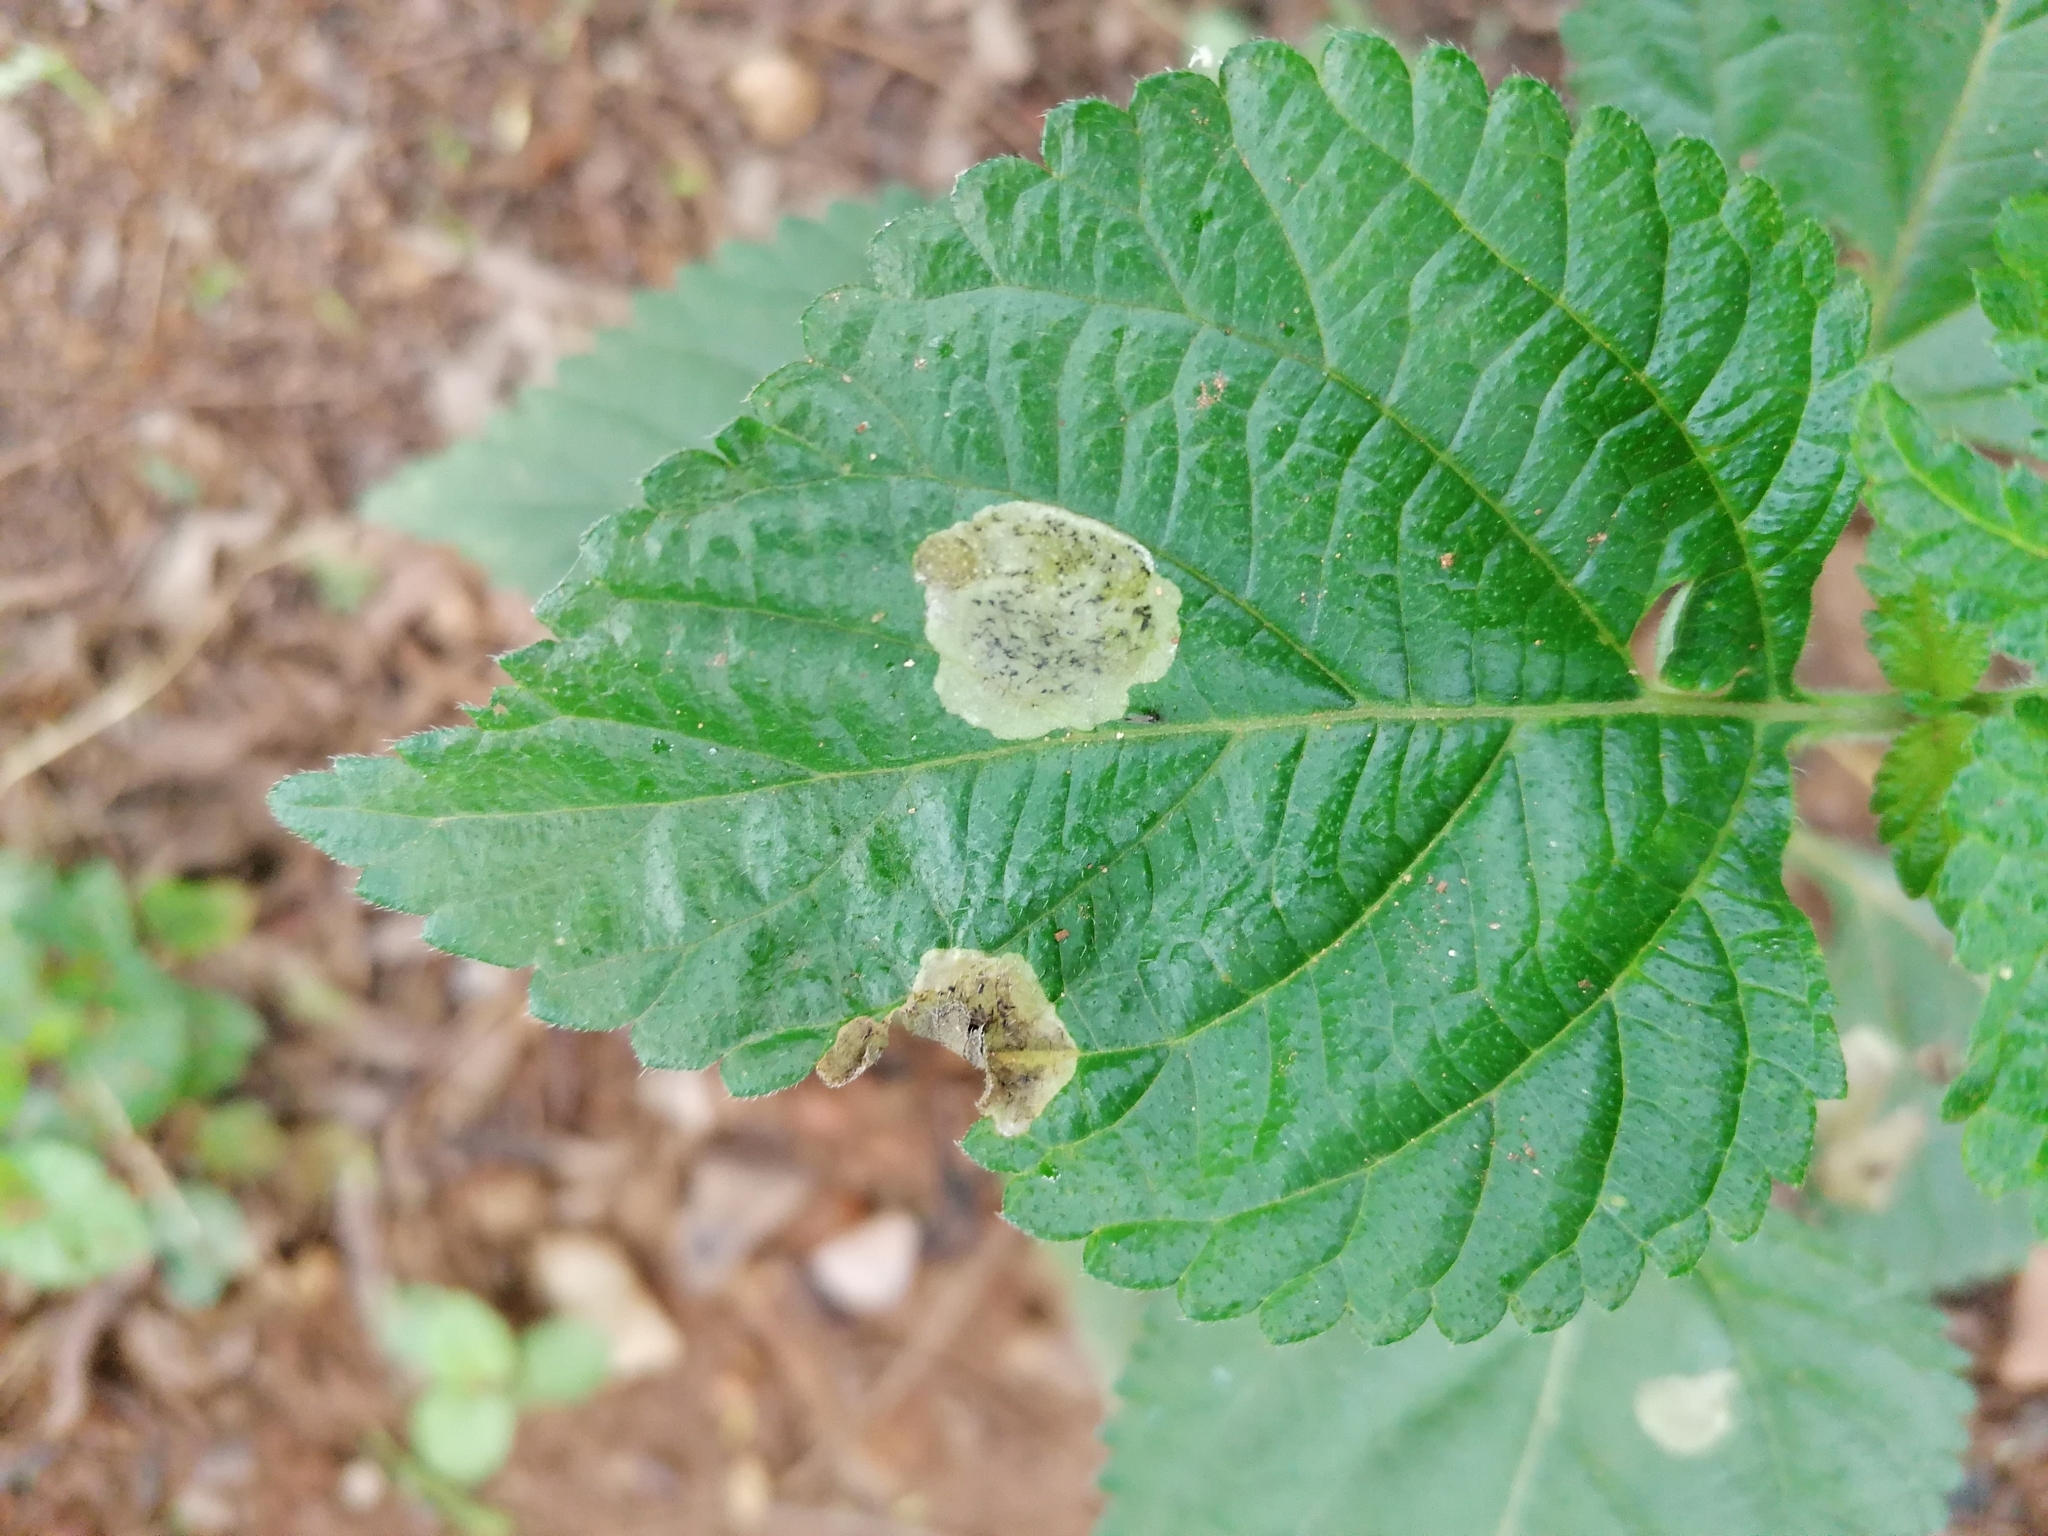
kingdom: Animalia
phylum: Arthropoda
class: Insecta
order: Diptera
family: Agromyzidae
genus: Calycomyza
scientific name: Calycomyza lantanae
